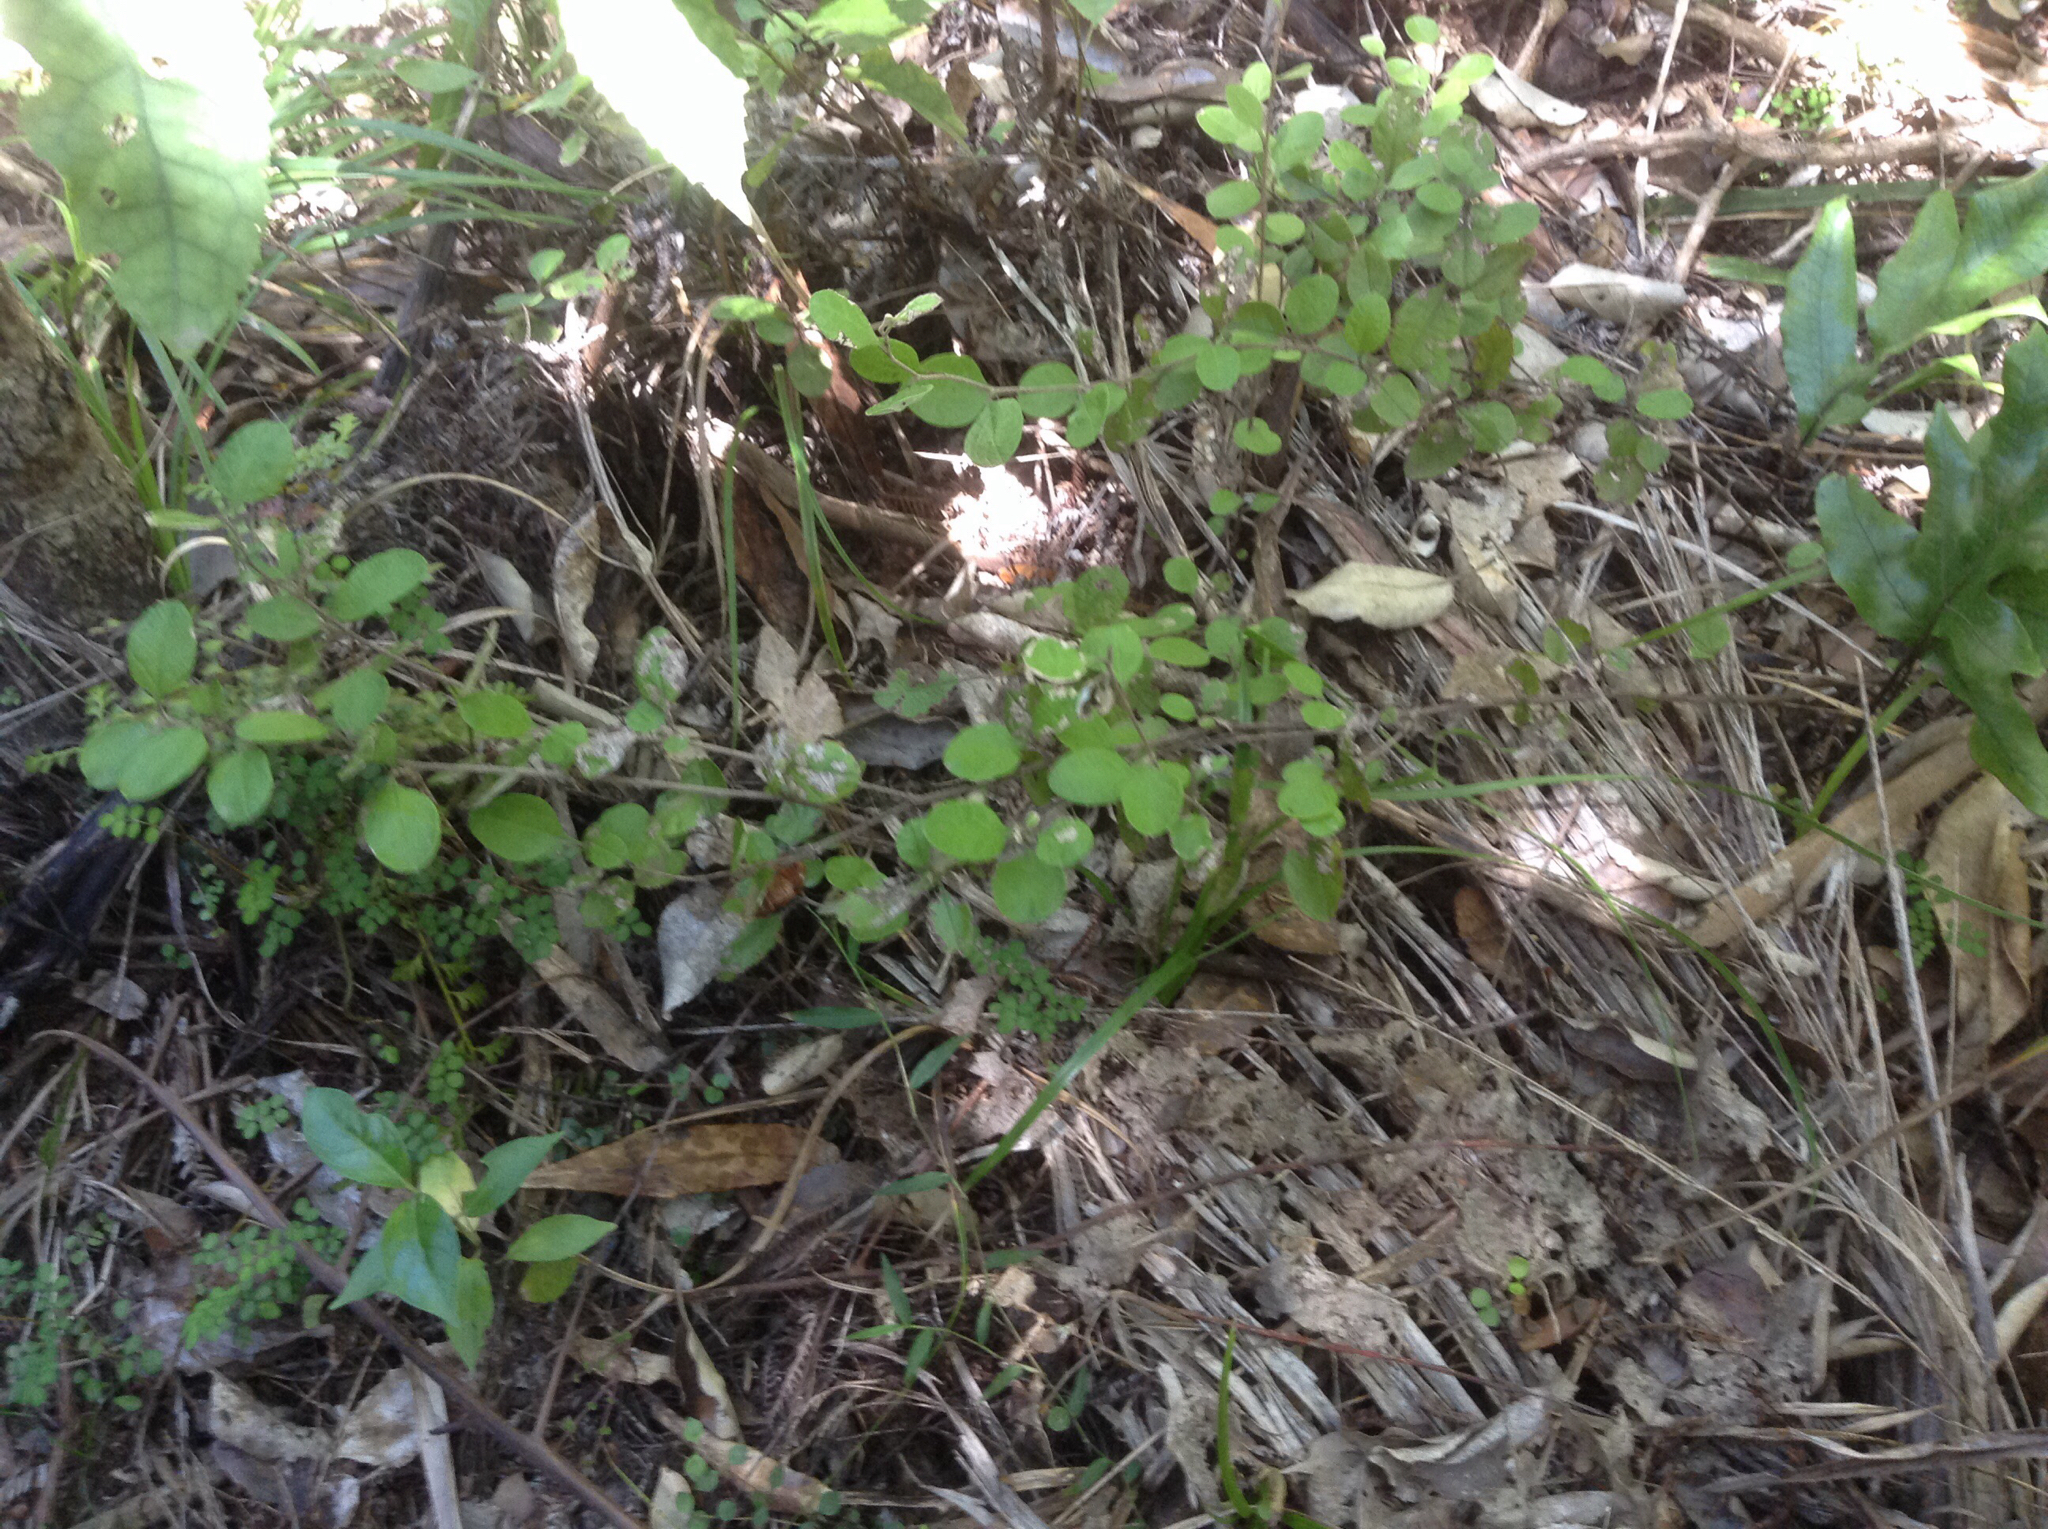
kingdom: Plantae
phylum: Tracheophyta
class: Magnoliopsida
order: Asterales
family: Asteraceae
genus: Ozothamnus
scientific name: Ozothamnus glomeratus
